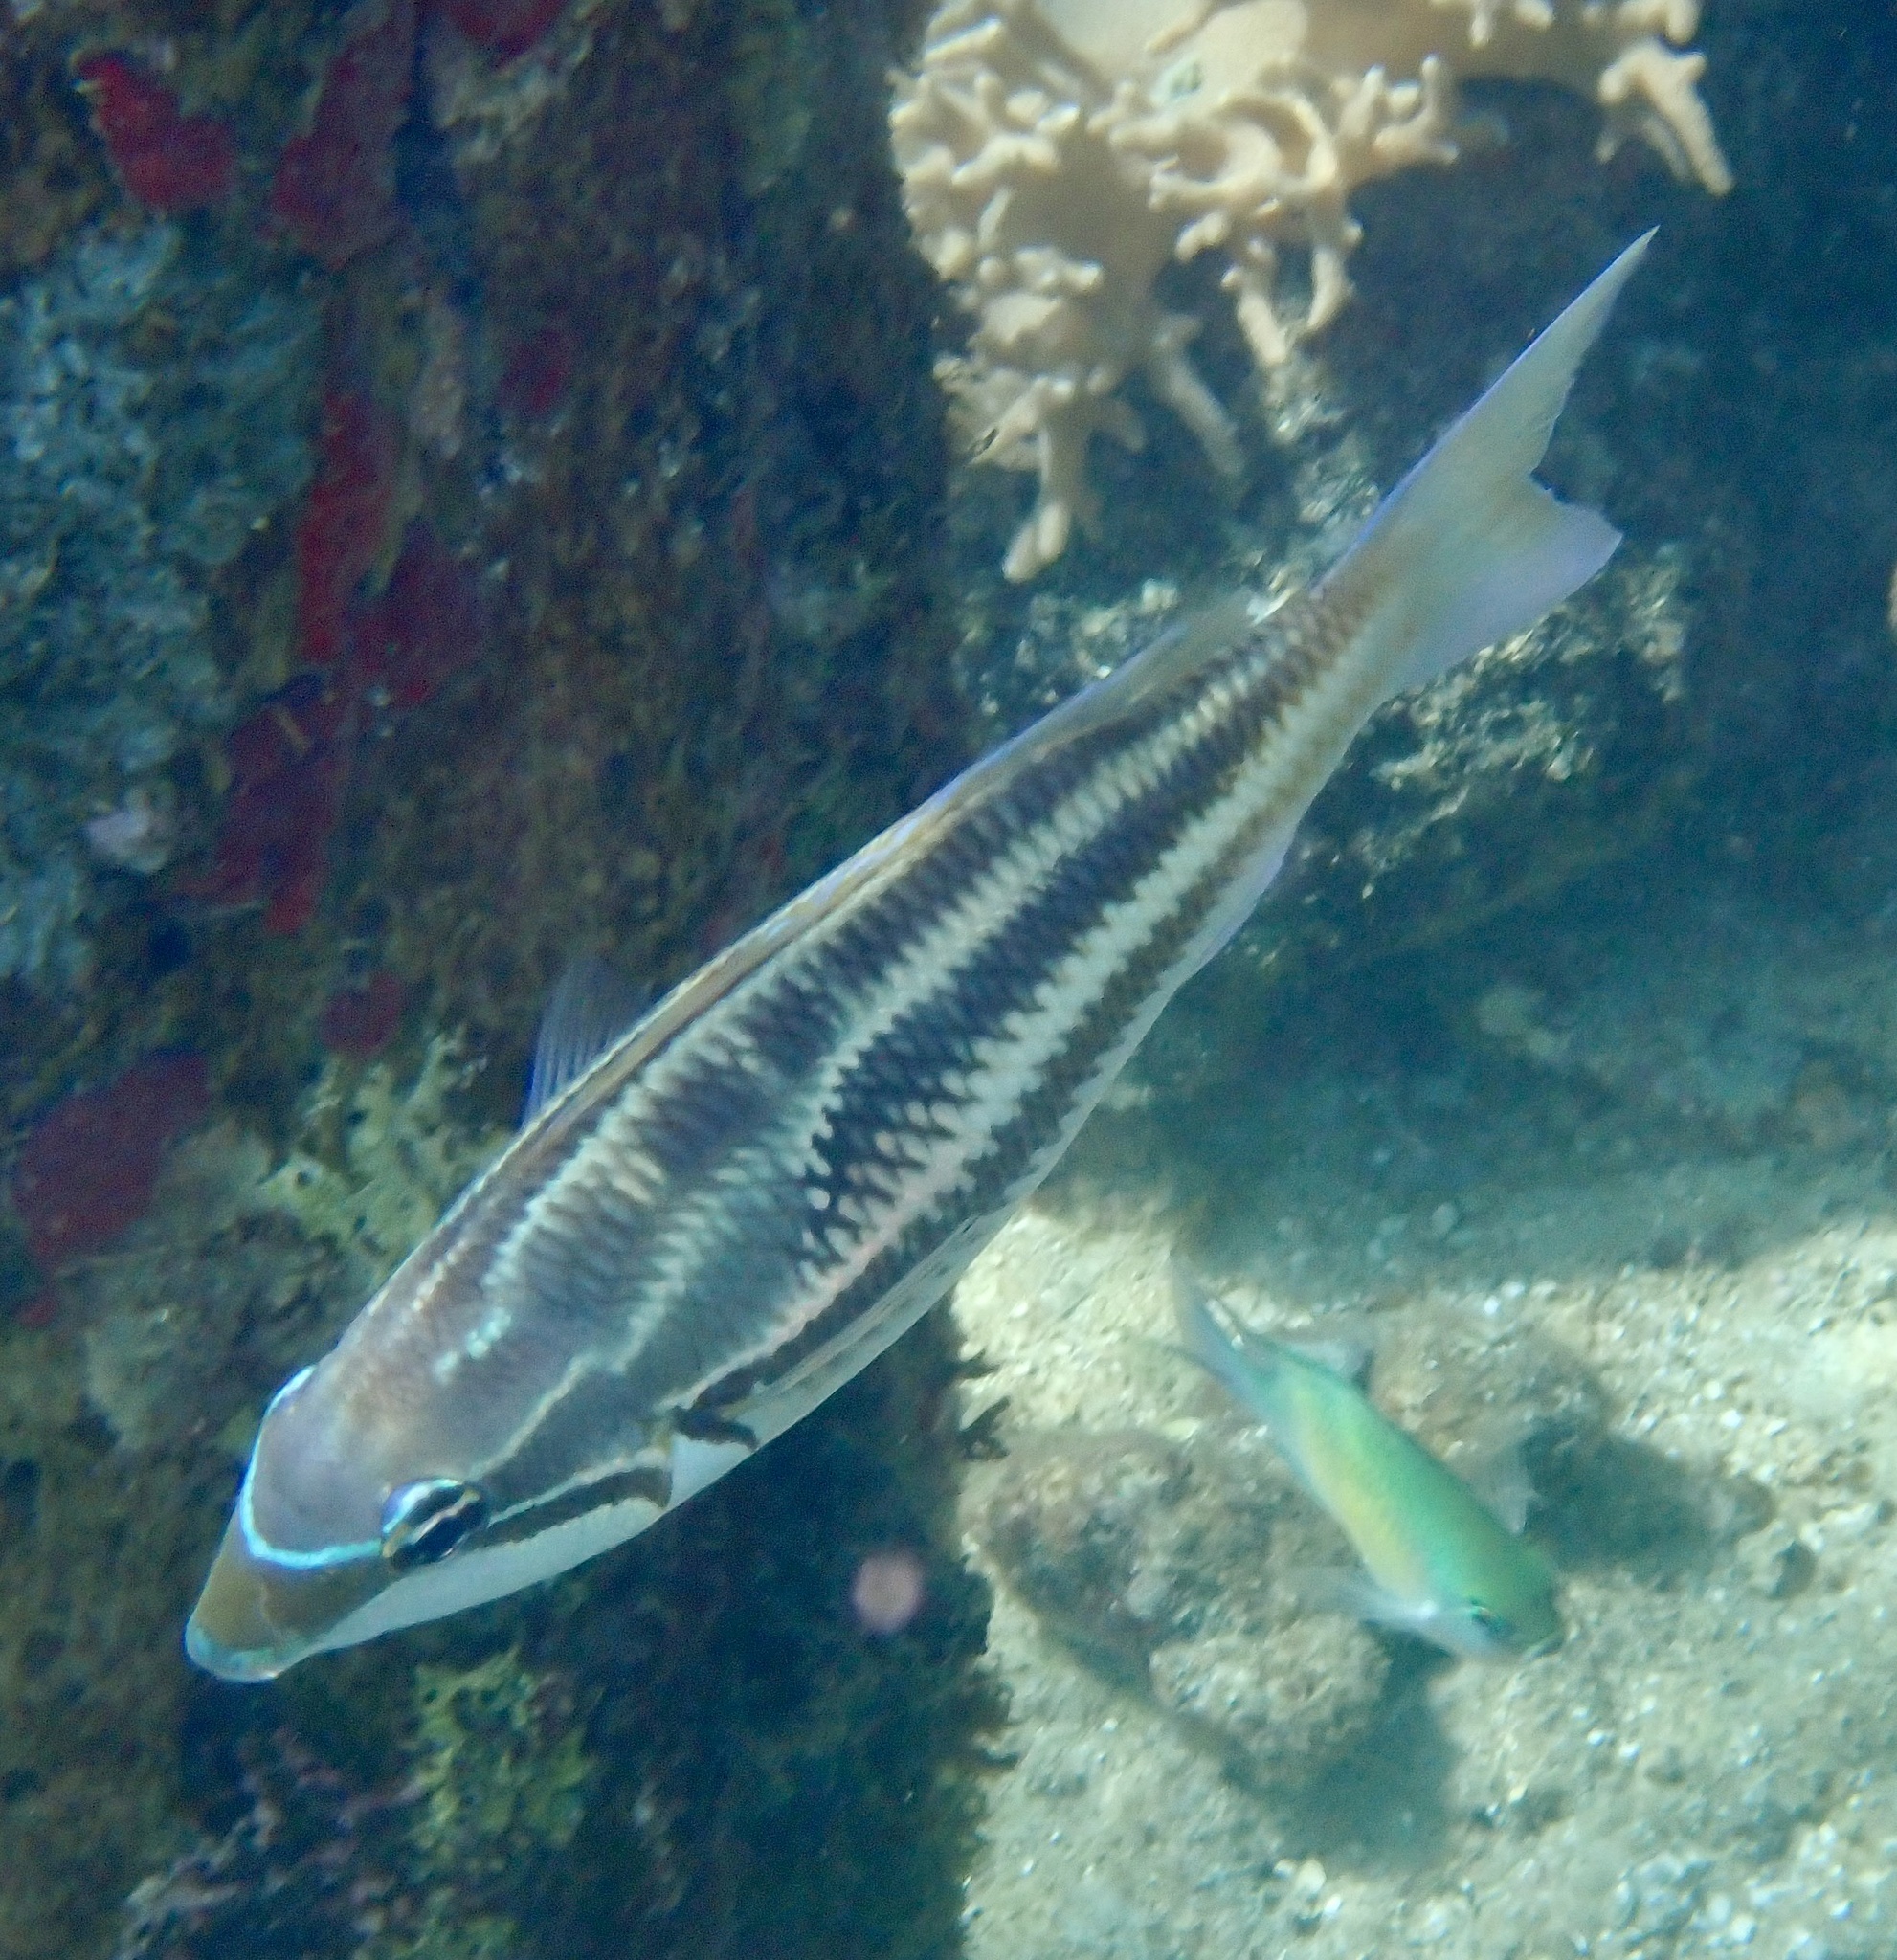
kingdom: Animalia
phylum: Chordata
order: Perciformes
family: Nemipteridae
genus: Pentapodus
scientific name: Pentapodus trivittatus
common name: Three-striped whiptail
